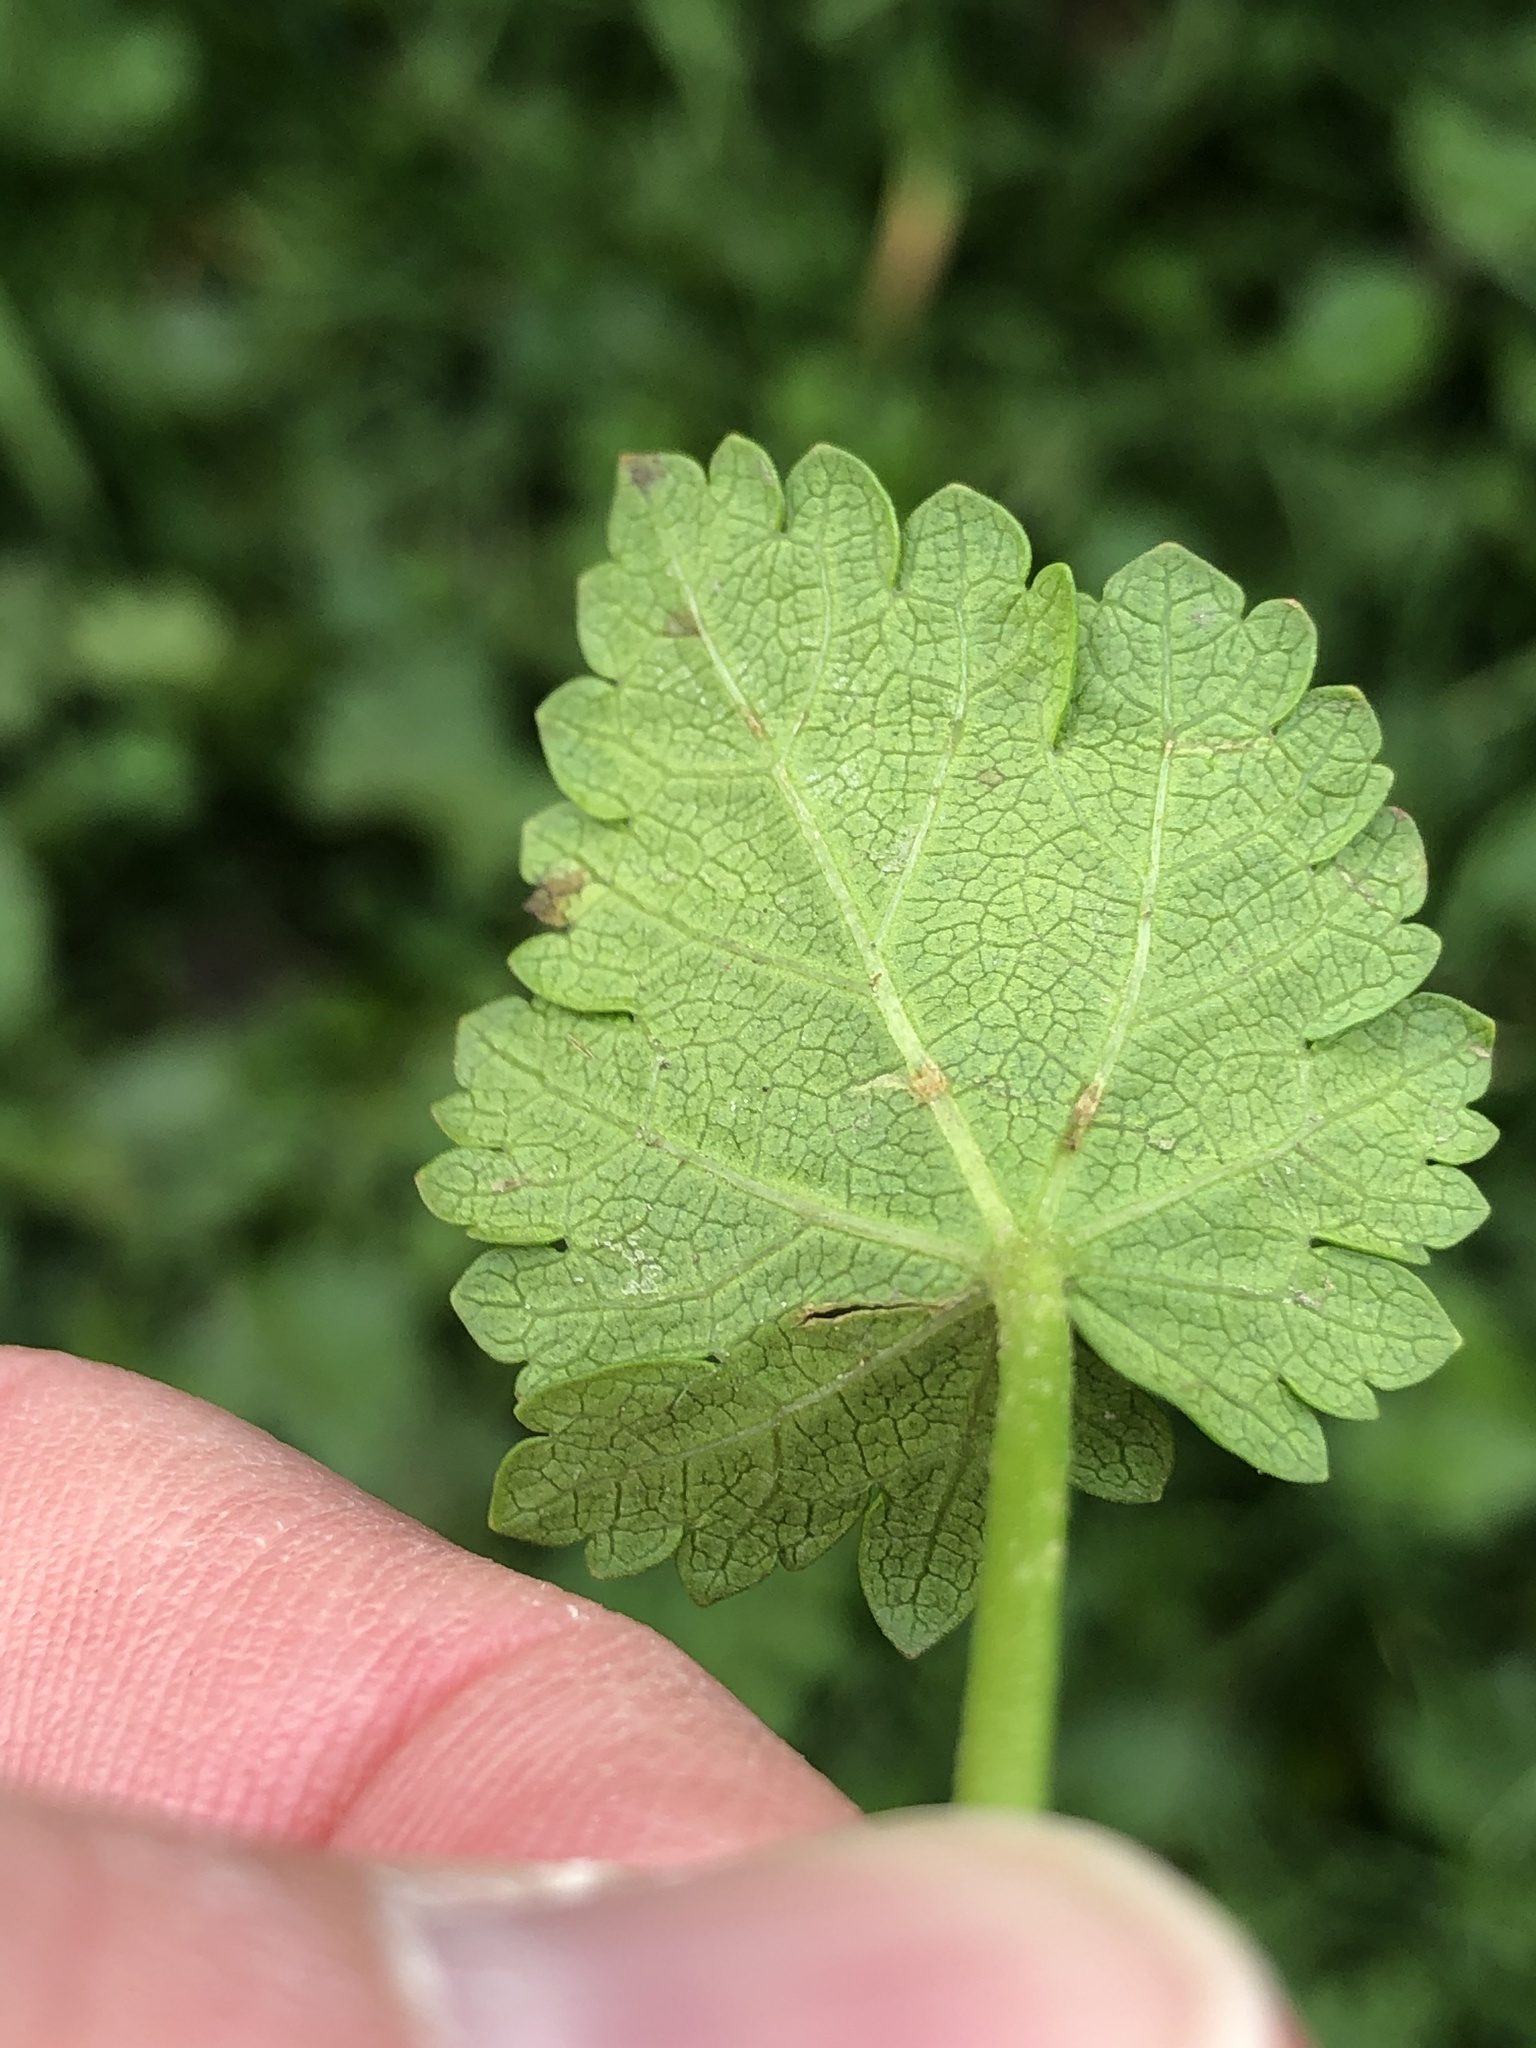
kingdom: Plantae
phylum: Tracheophyta
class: Magnoliopsida
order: Malvales
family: Malvaceae
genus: Modiola
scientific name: Modiola caroliniana
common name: Carolina bristlemallow
